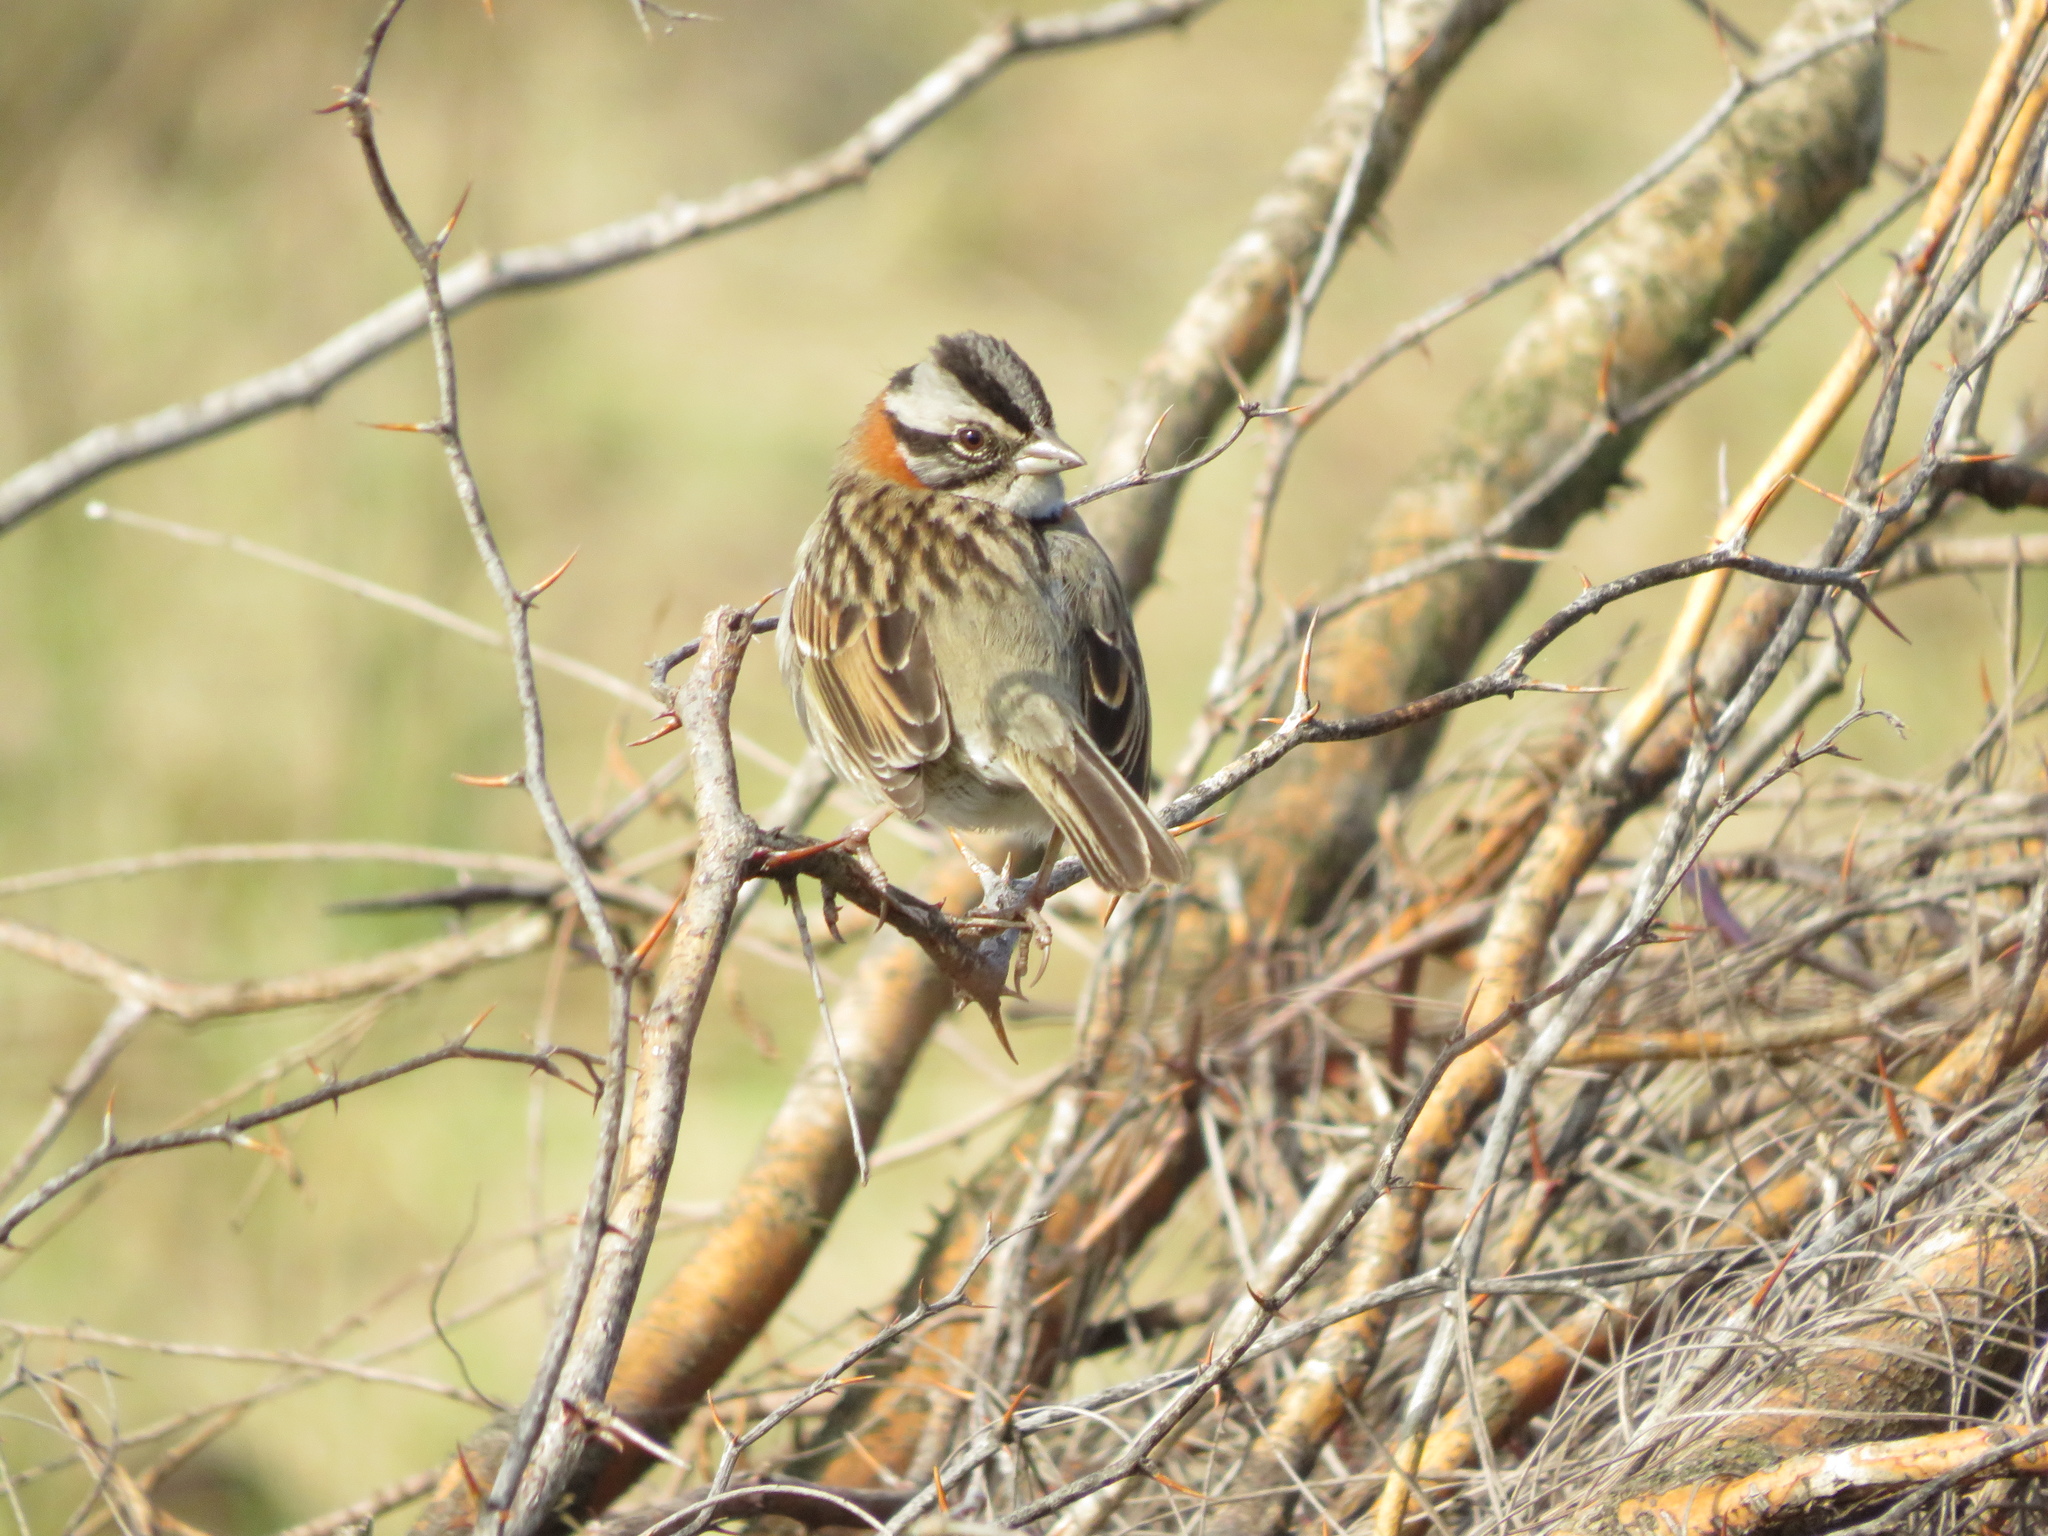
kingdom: Animalia
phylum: Chordata
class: Aves
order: Passeriformes
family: Passerellidae
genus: Zonotrichia
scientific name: Zonotrichia capensis
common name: Rufous-collared sparrow
